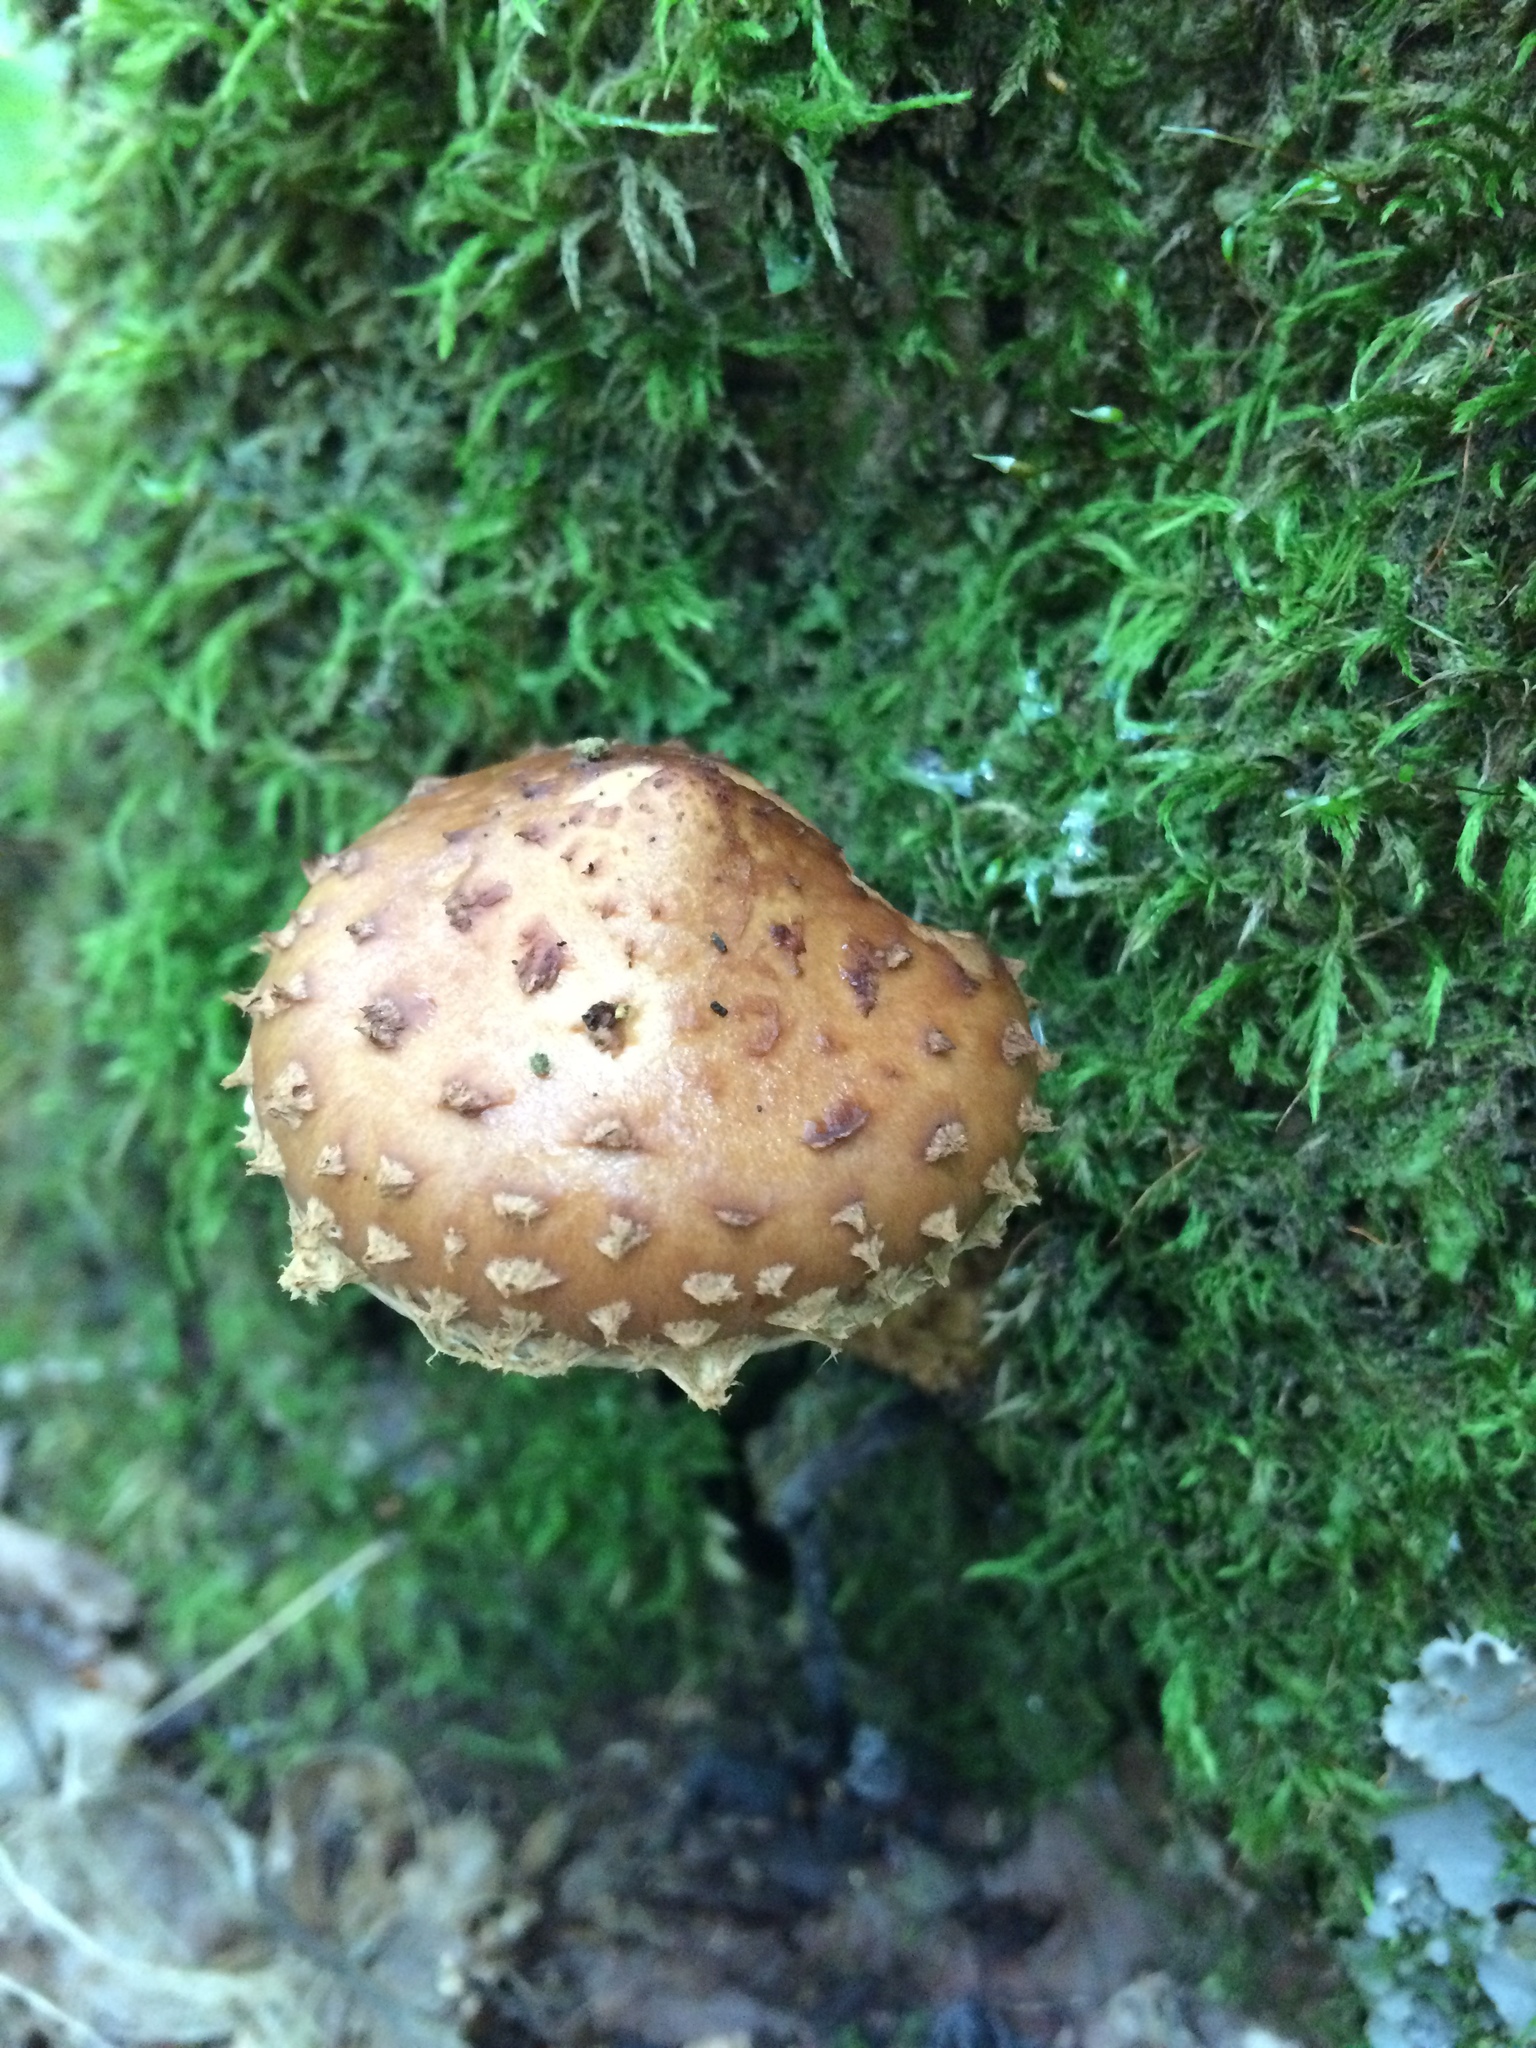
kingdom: Fungi
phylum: Basidiomycota
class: Agaricomycetes
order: Agaricales
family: Tubariaceae
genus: Hemistropharia
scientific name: Hemistropharia albocrenulata
